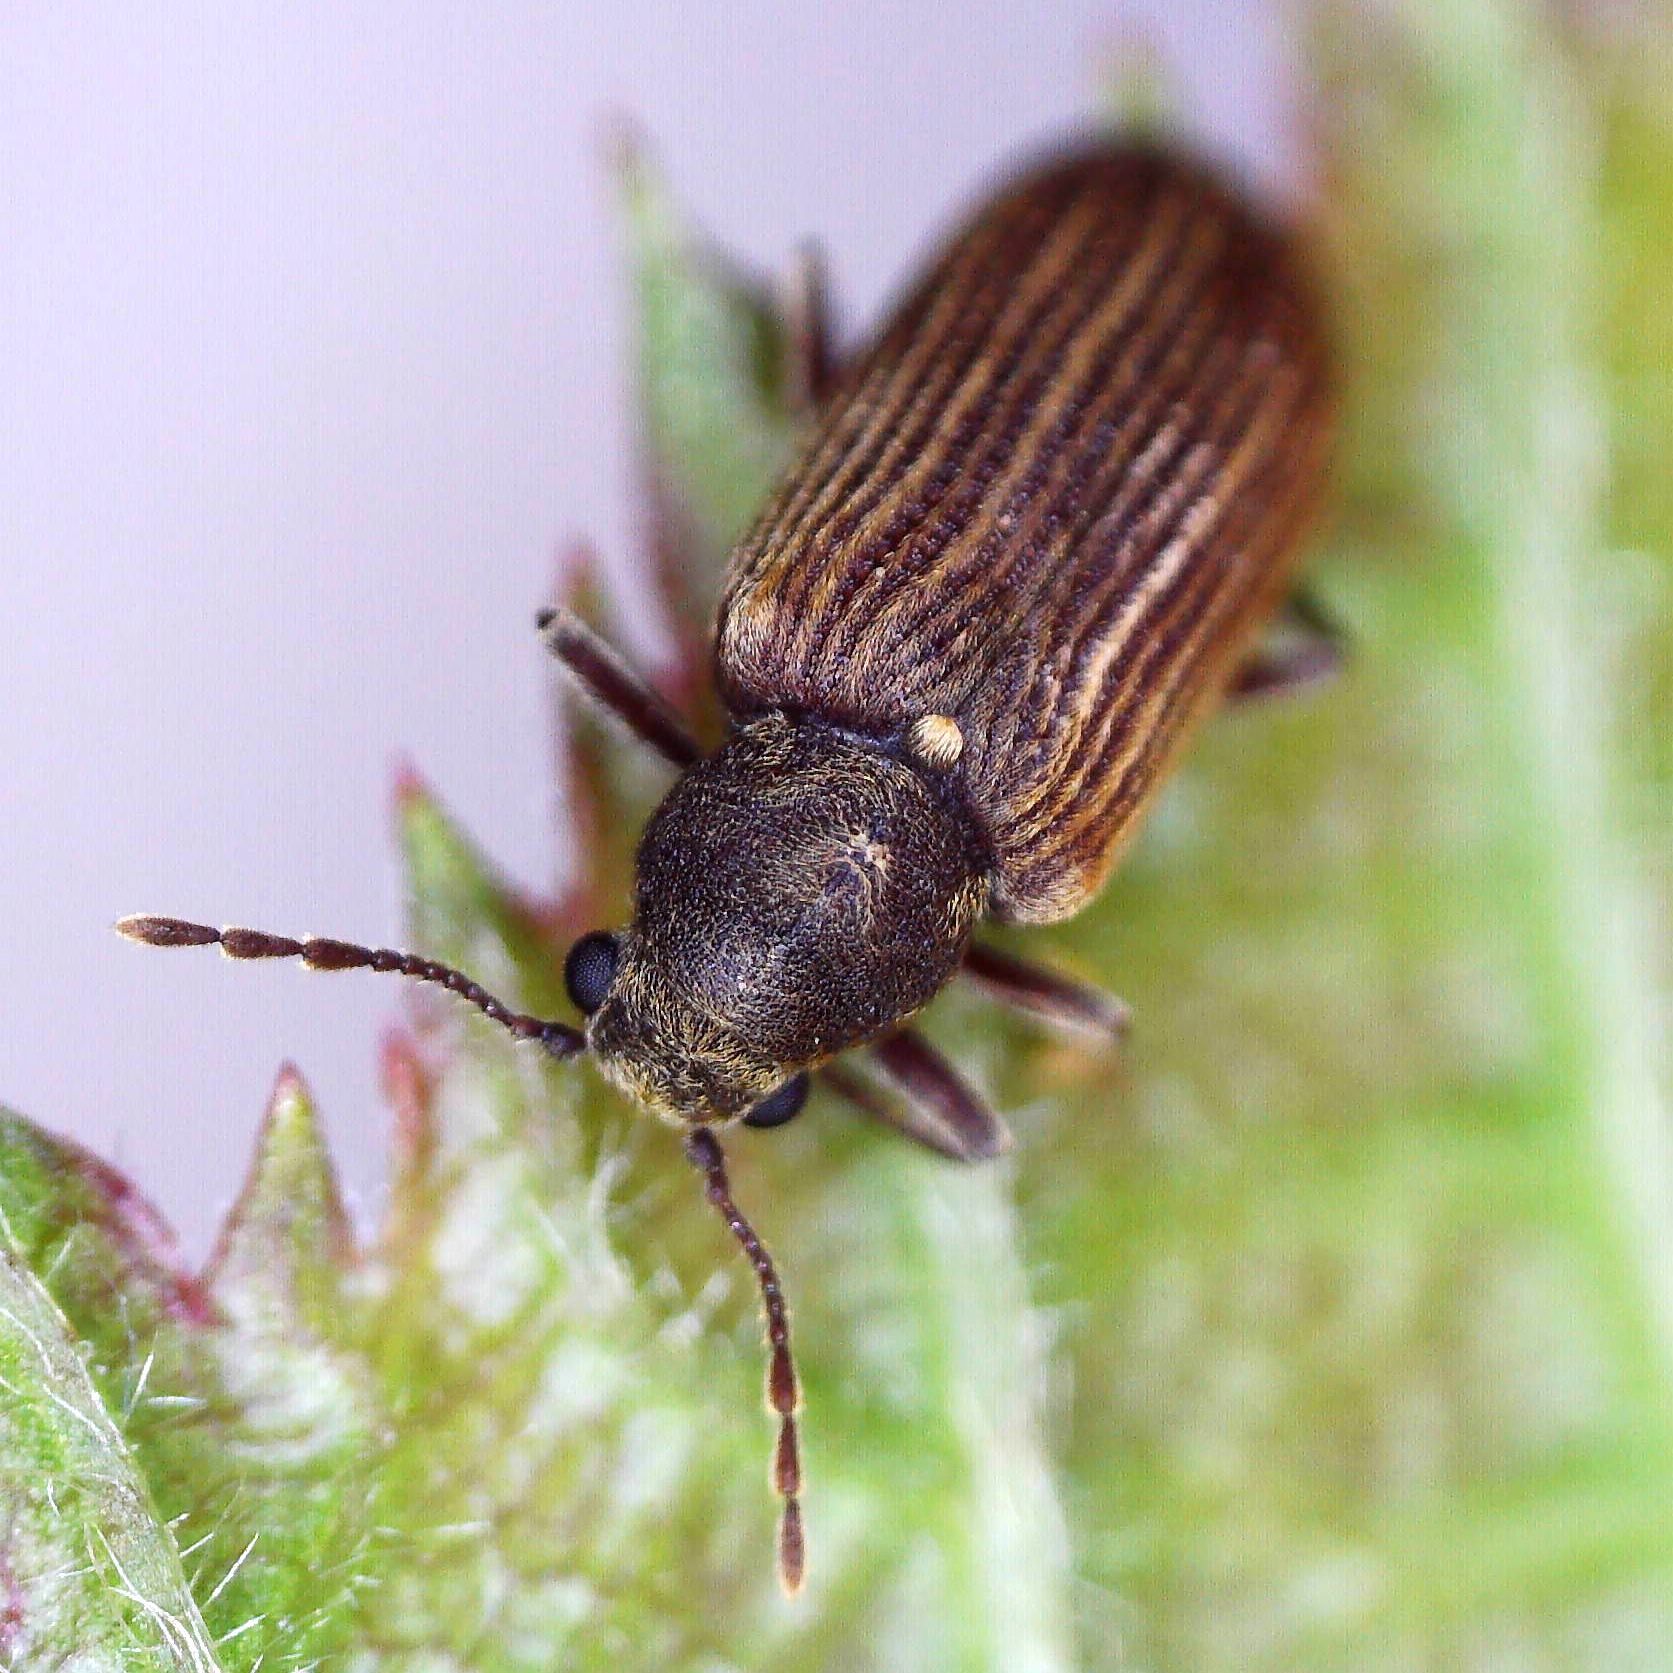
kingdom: Animalia
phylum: Arthropoda
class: Insecta
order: Coleoptera
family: Anobiidae
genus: Grynobius
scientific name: Grynobius planus
